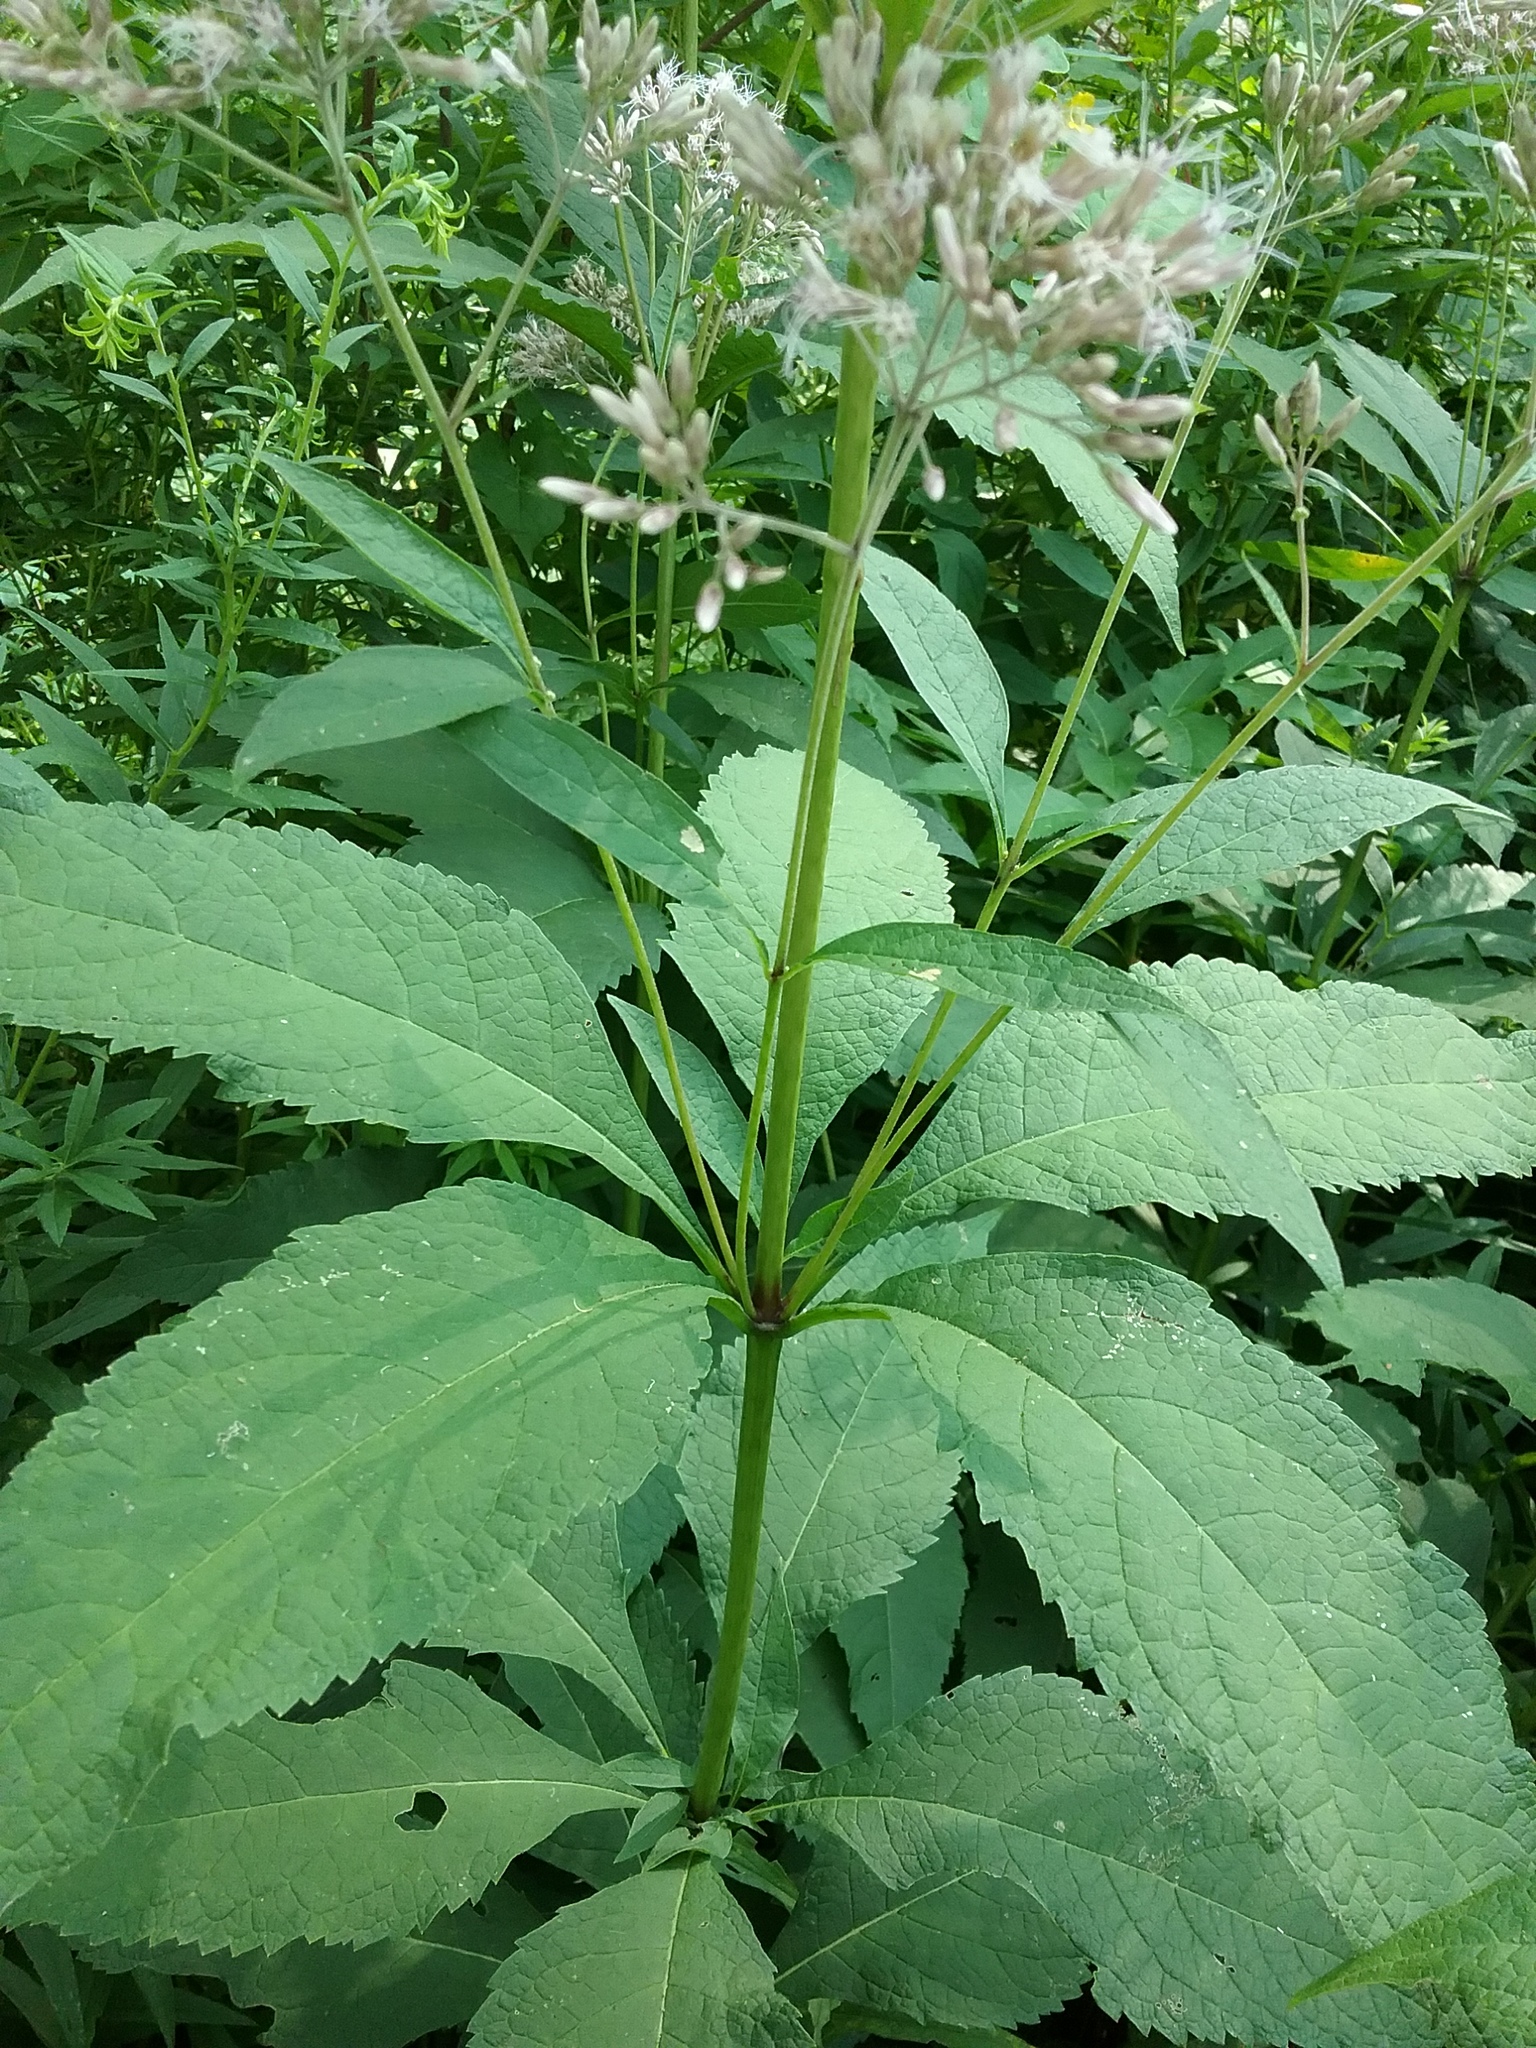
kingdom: Plantae
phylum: Tracheophyta
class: Magnoliopsida
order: Asterales
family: Asteraceae
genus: Eutrochium
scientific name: Eutrochium purpureum
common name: Gravelroot
